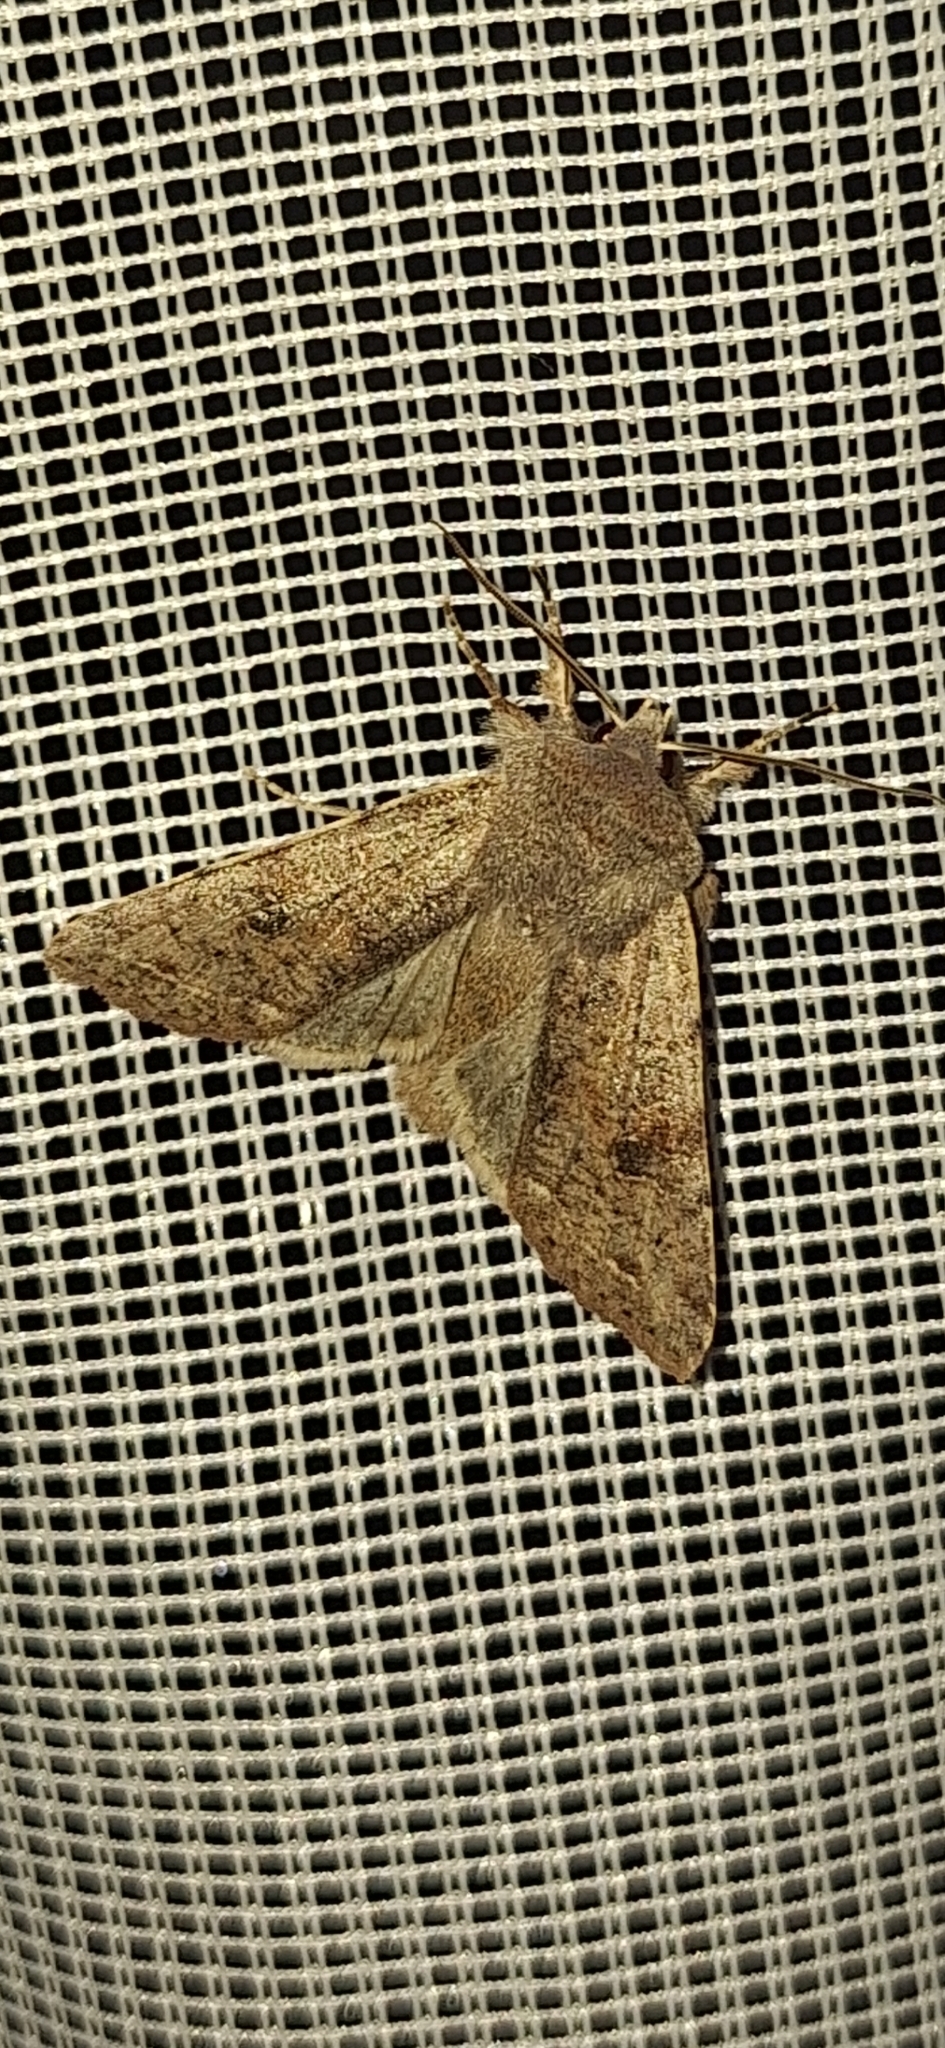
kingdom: Animalia
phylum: Arthropoda
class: Insecta
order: Lepidoptera
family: Noctuidae
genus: Orthosia
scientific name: Orthosia incerta
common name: Clouded drab
